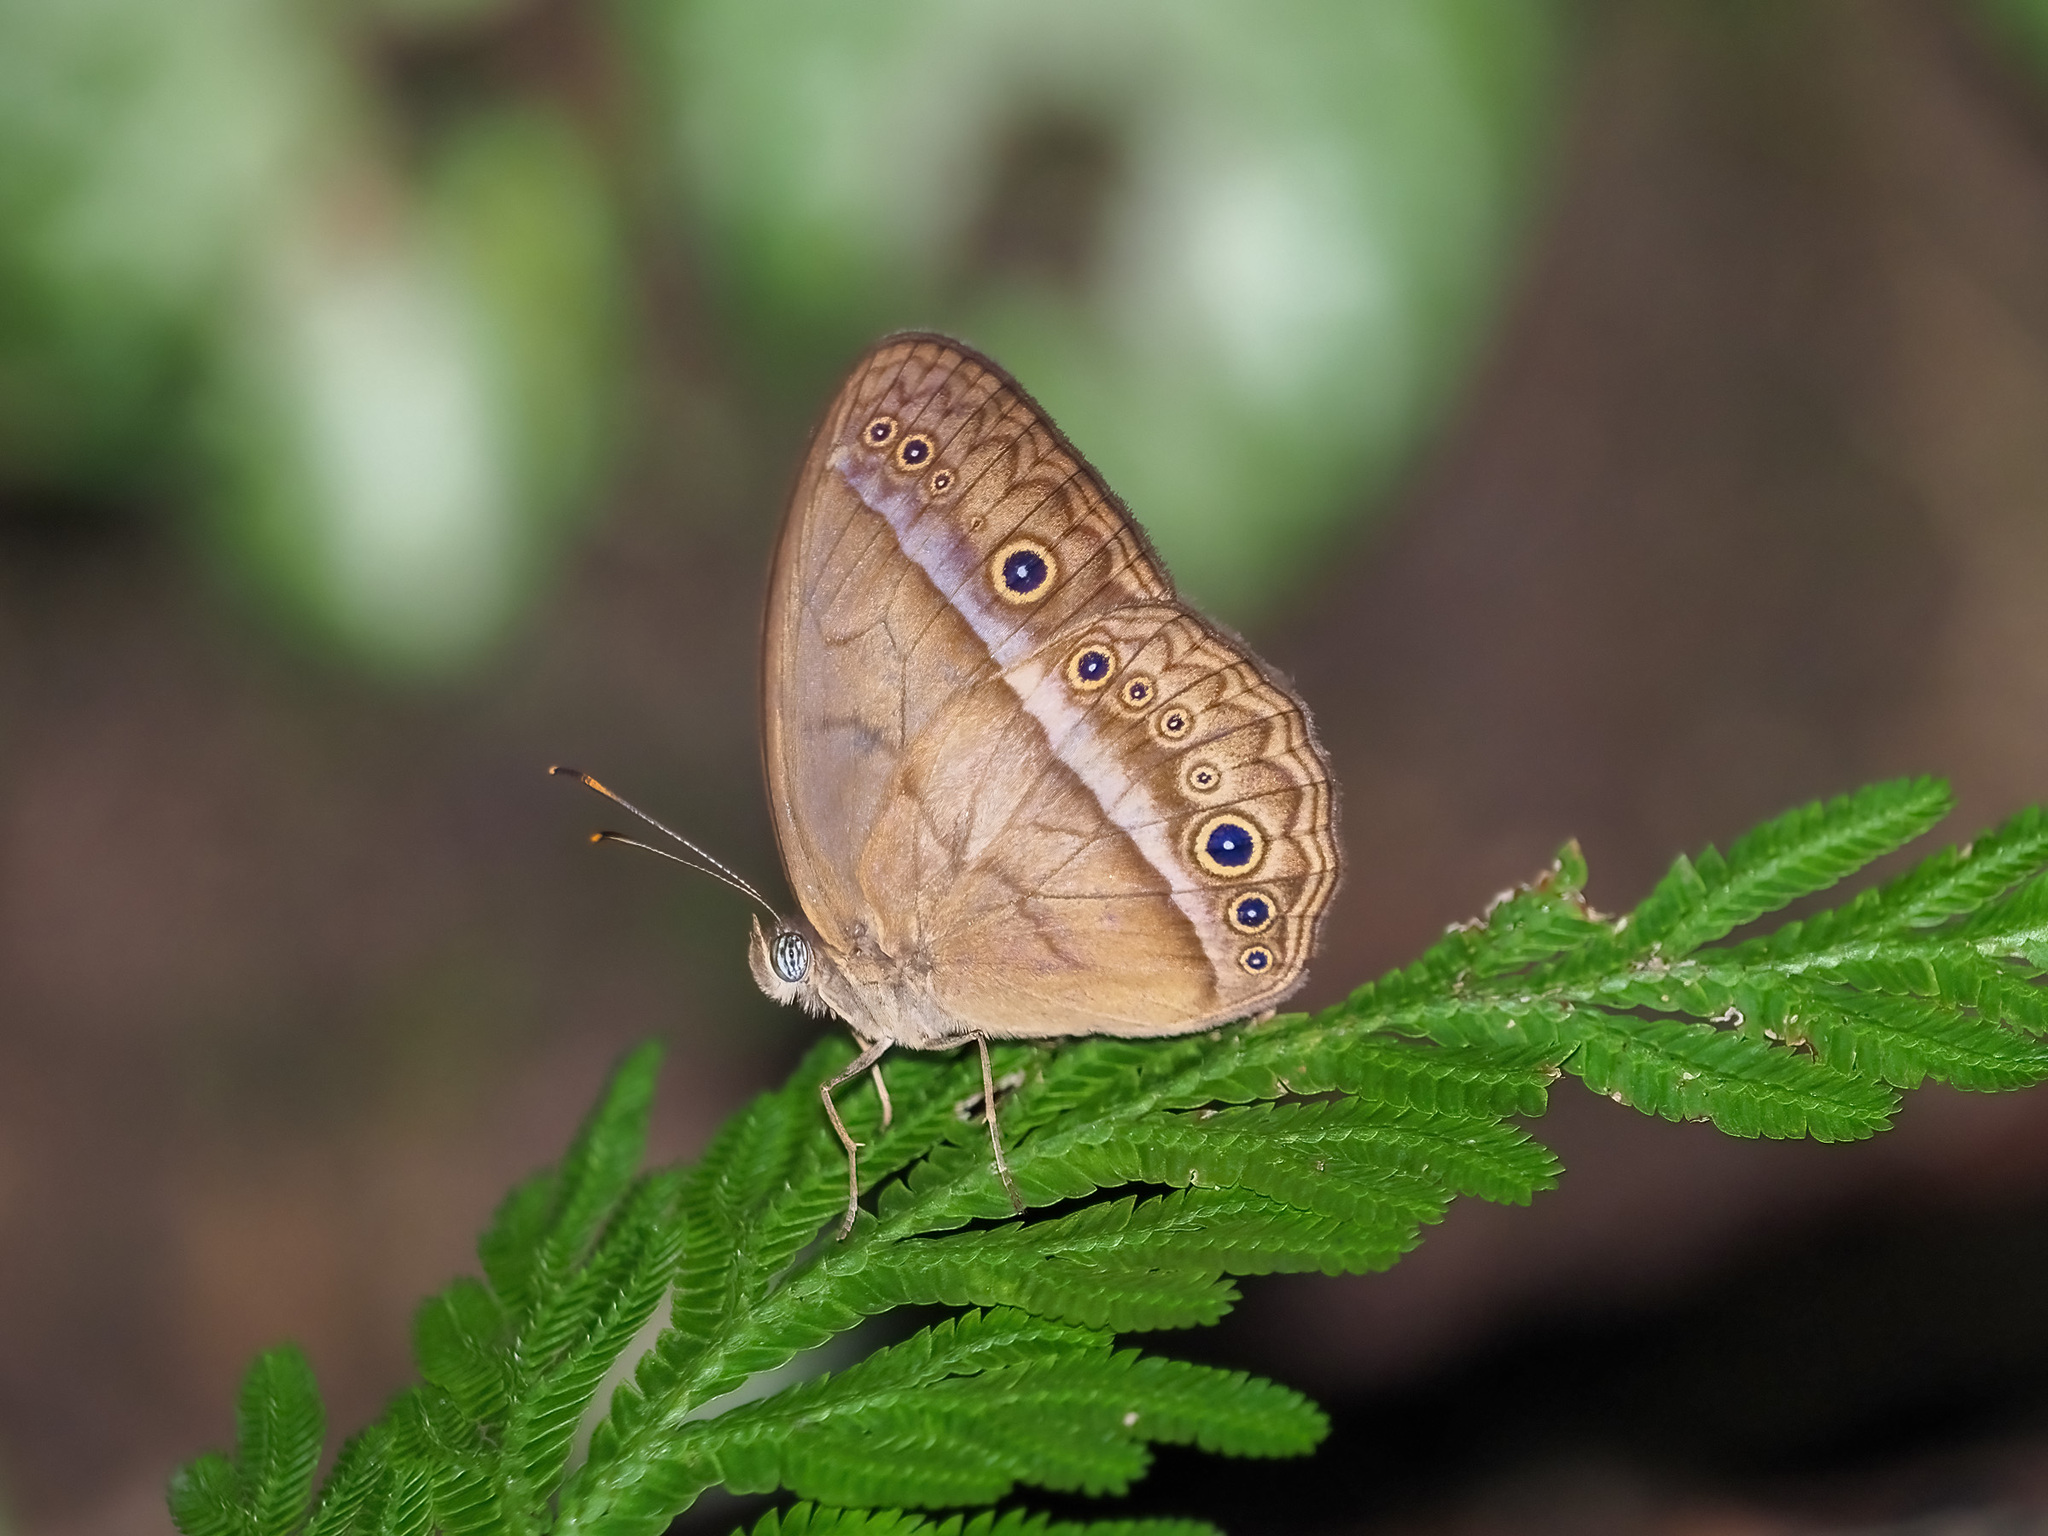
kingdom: Animalia
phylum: Arthropoda
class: Insecta
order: Lepidoptera
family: Nymphalidae
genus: Mycalesis
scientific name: Mycalesis orseis
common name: Purple bushbrown
